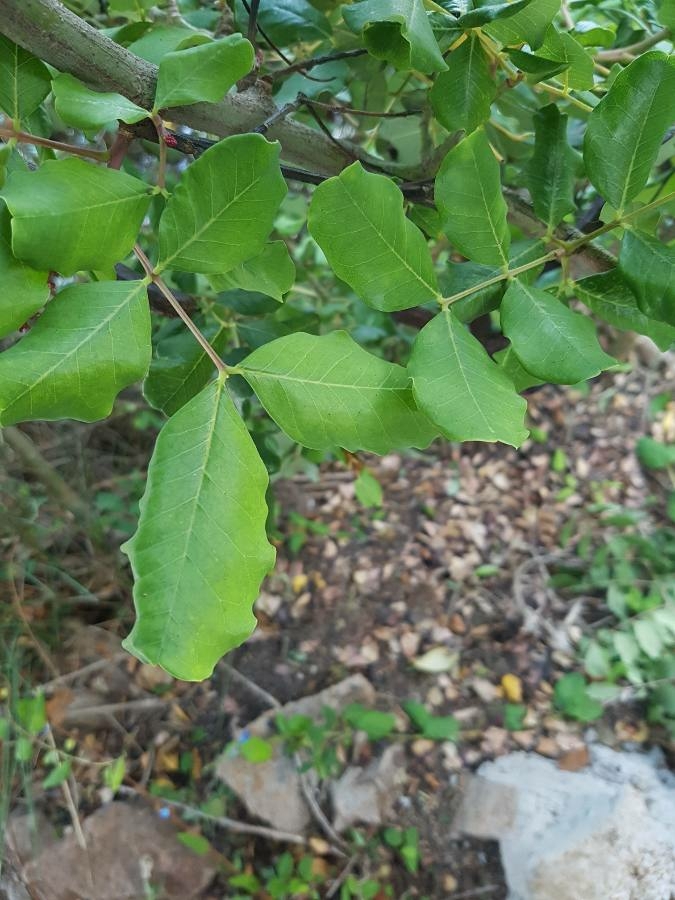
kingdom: Plantae
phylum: Tracheophyta
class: Magnoliopsida
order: Fabales
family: Fabaceae
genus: Ceratonia
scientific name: Ceratonia siliqua
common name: Carob
